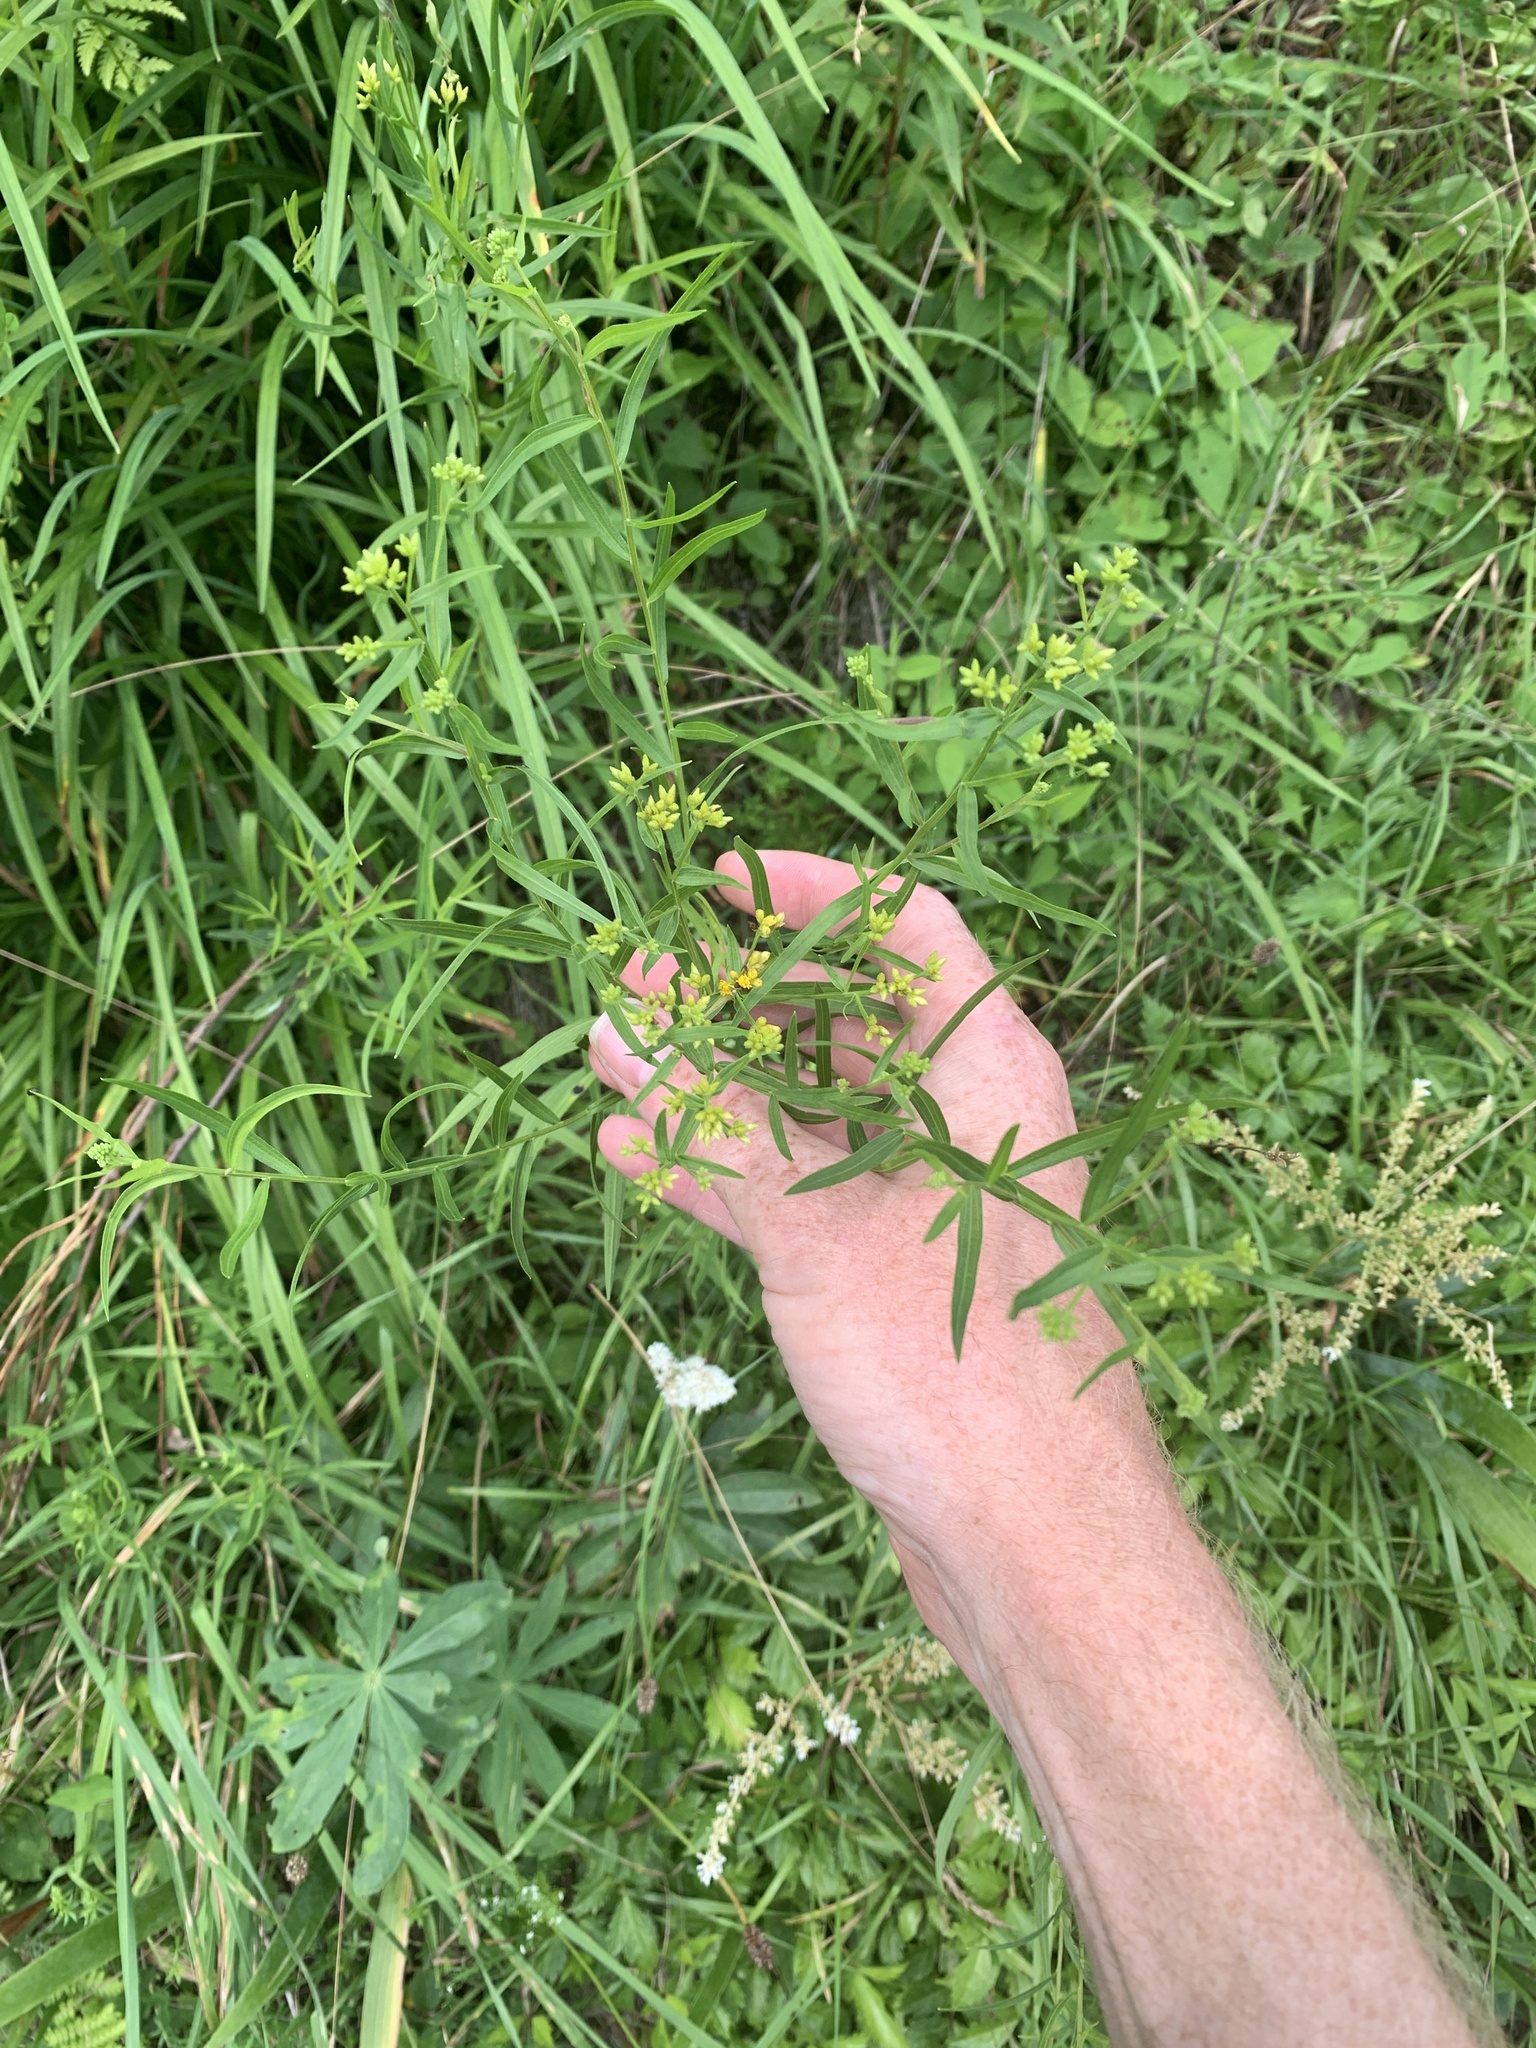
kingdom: Plantae
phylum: Tracheophyta
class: Magnoliopsida
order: Asterales
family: Asteraceae
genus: Euthamia
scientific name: Euthamia graminifolia
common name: Common goldentop
